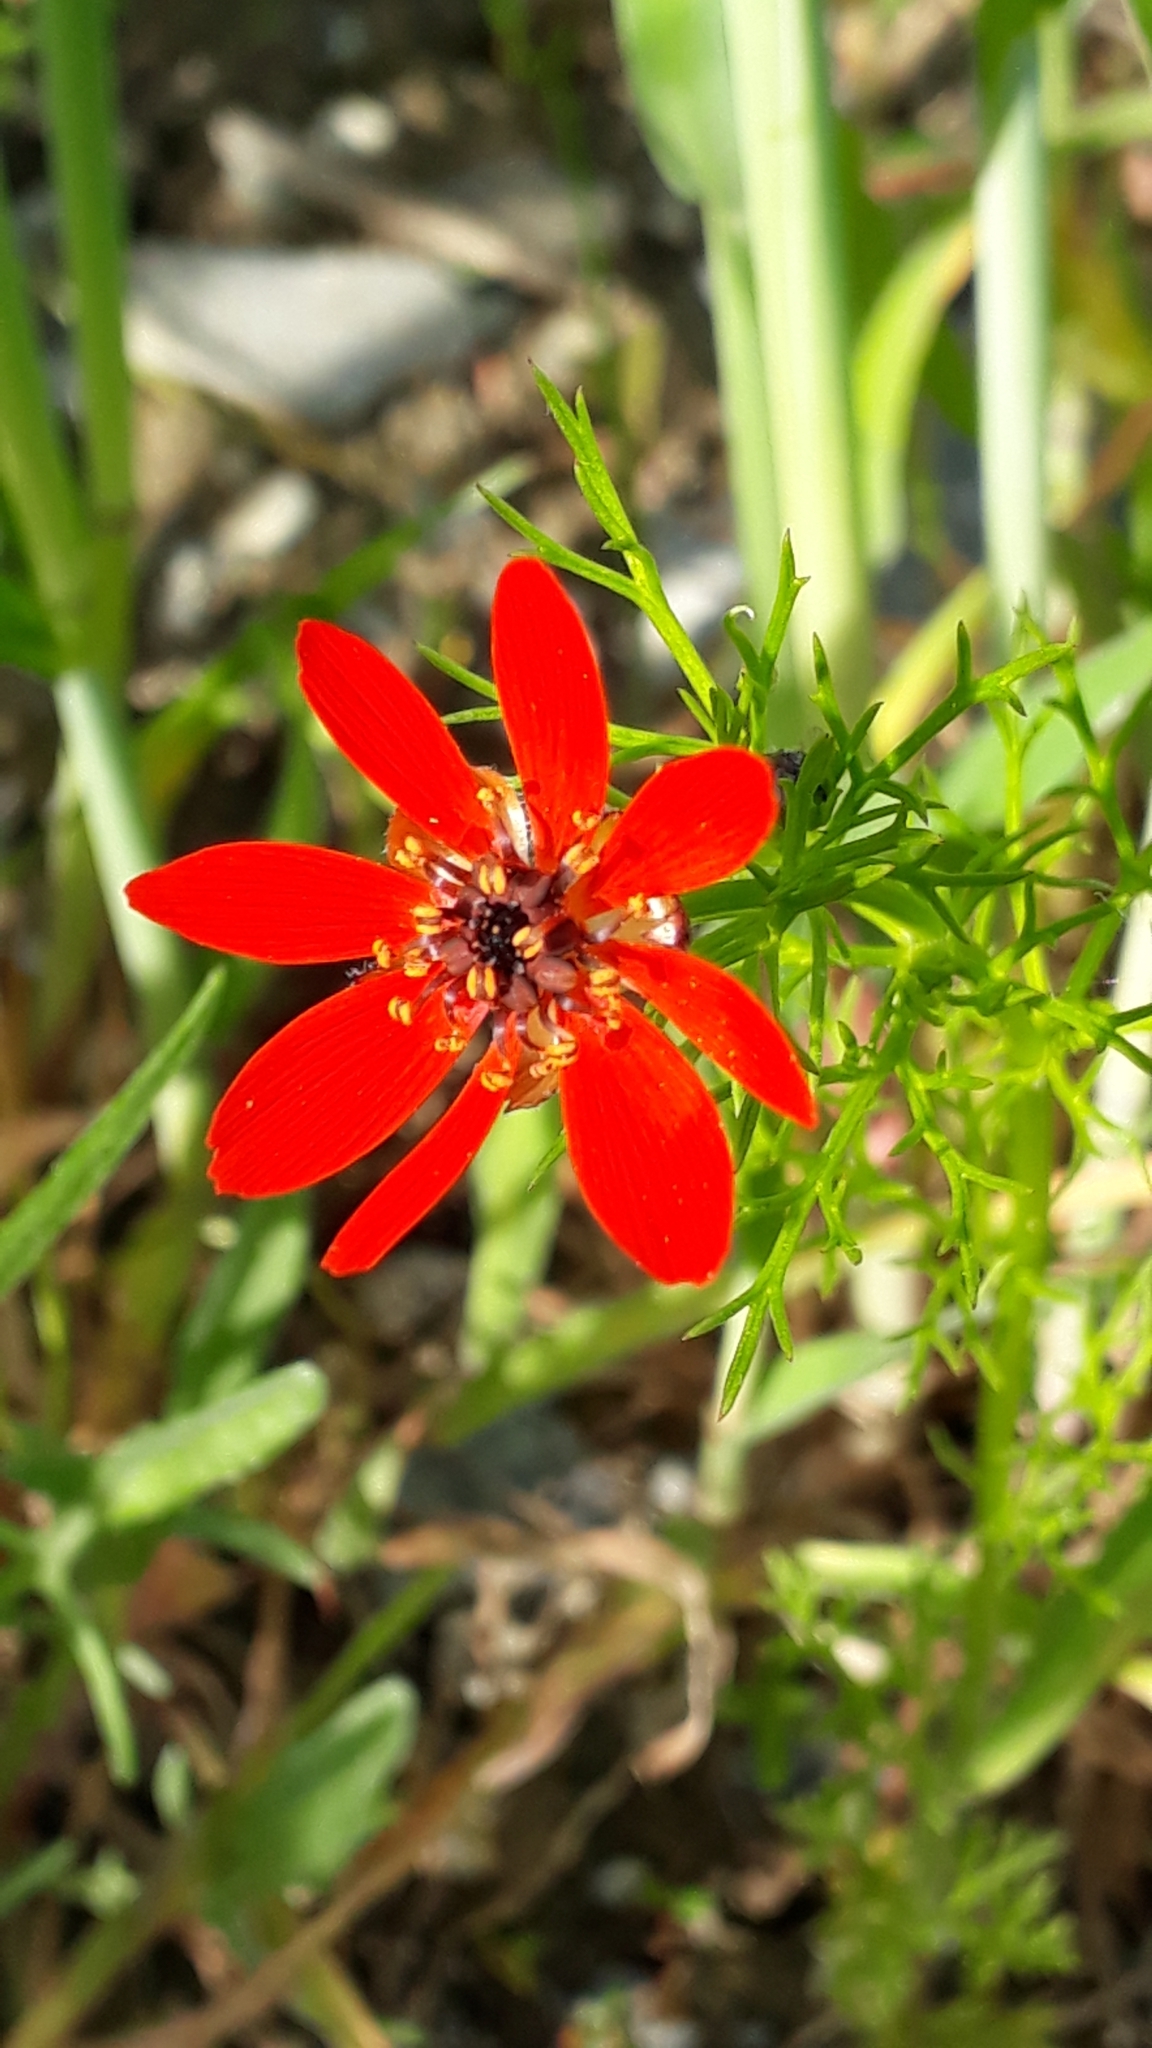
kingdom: Plantae
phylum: Tracheophyta
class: Magnoliopsida
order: Ranunculales
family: Ranunculaceae
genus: Adonis
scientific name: Adonis flammea
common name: Large pheasant's-eye
